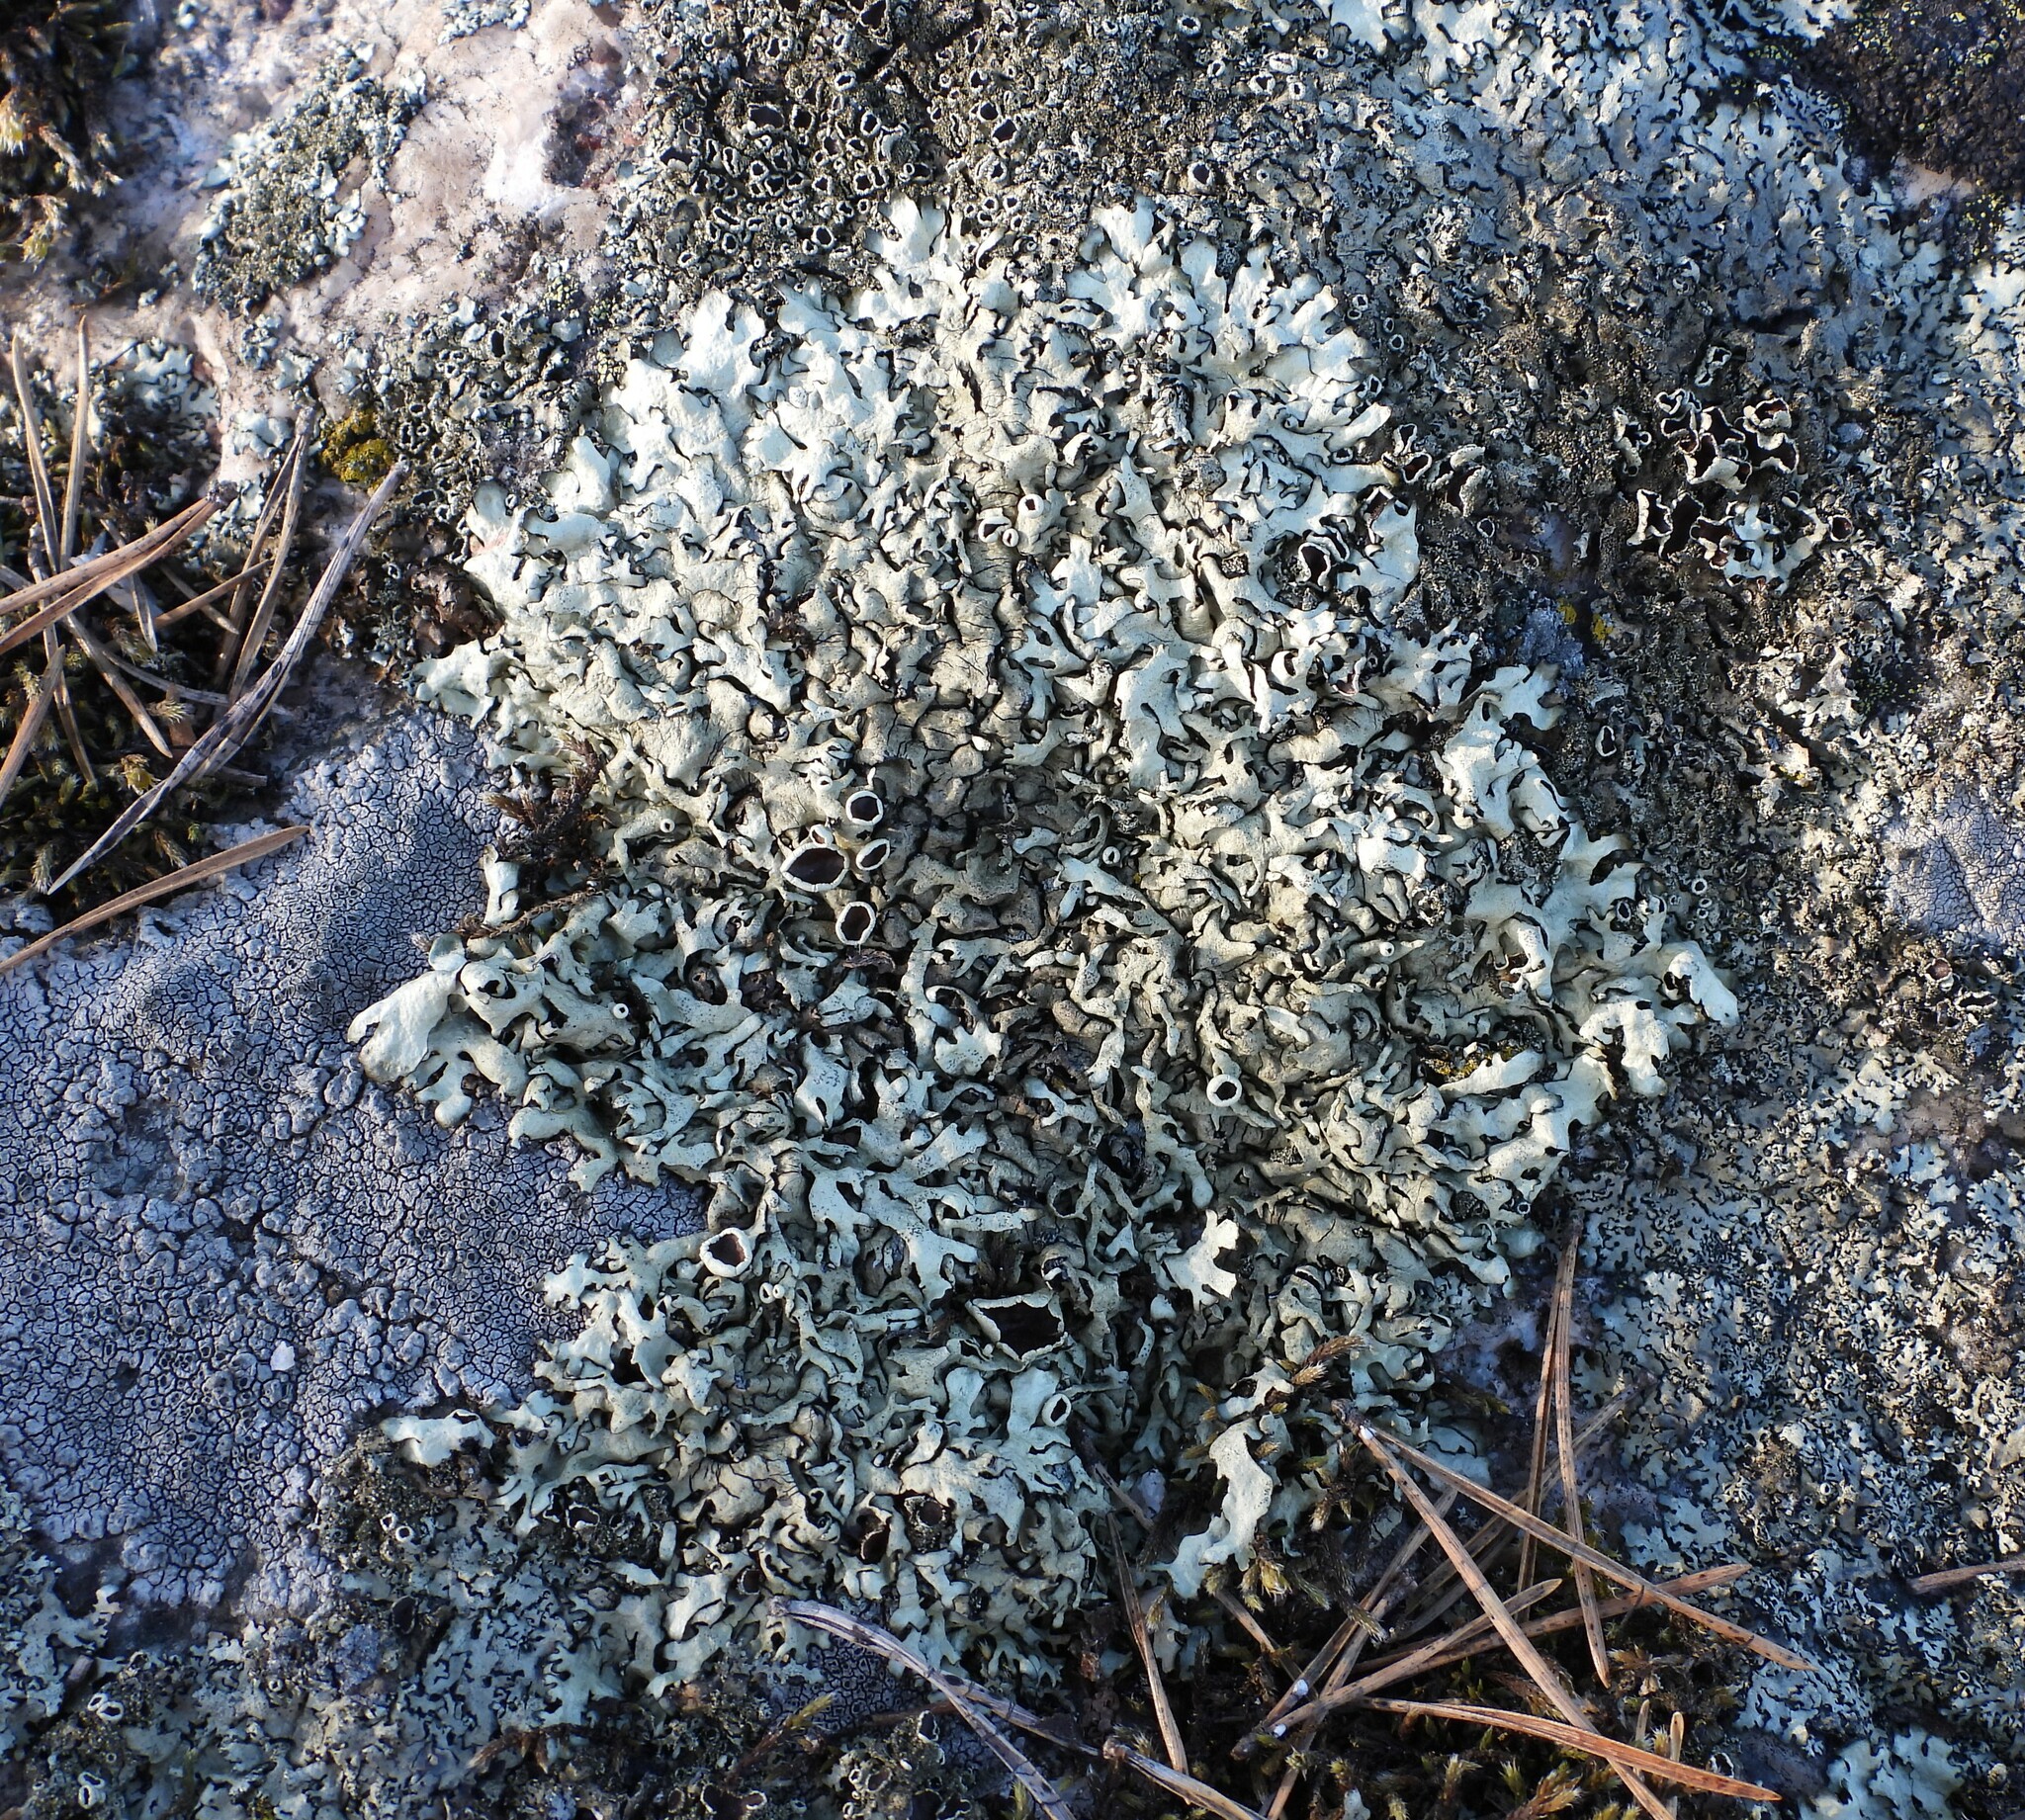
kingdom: Fungi
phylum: Ascomycota
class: Lecanoromycetes
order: Lecanorales
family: Parmeliaceae
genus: Xanthoparmelia
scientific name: Xanthoparmelia stenophylla
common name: Shingled rock shield
